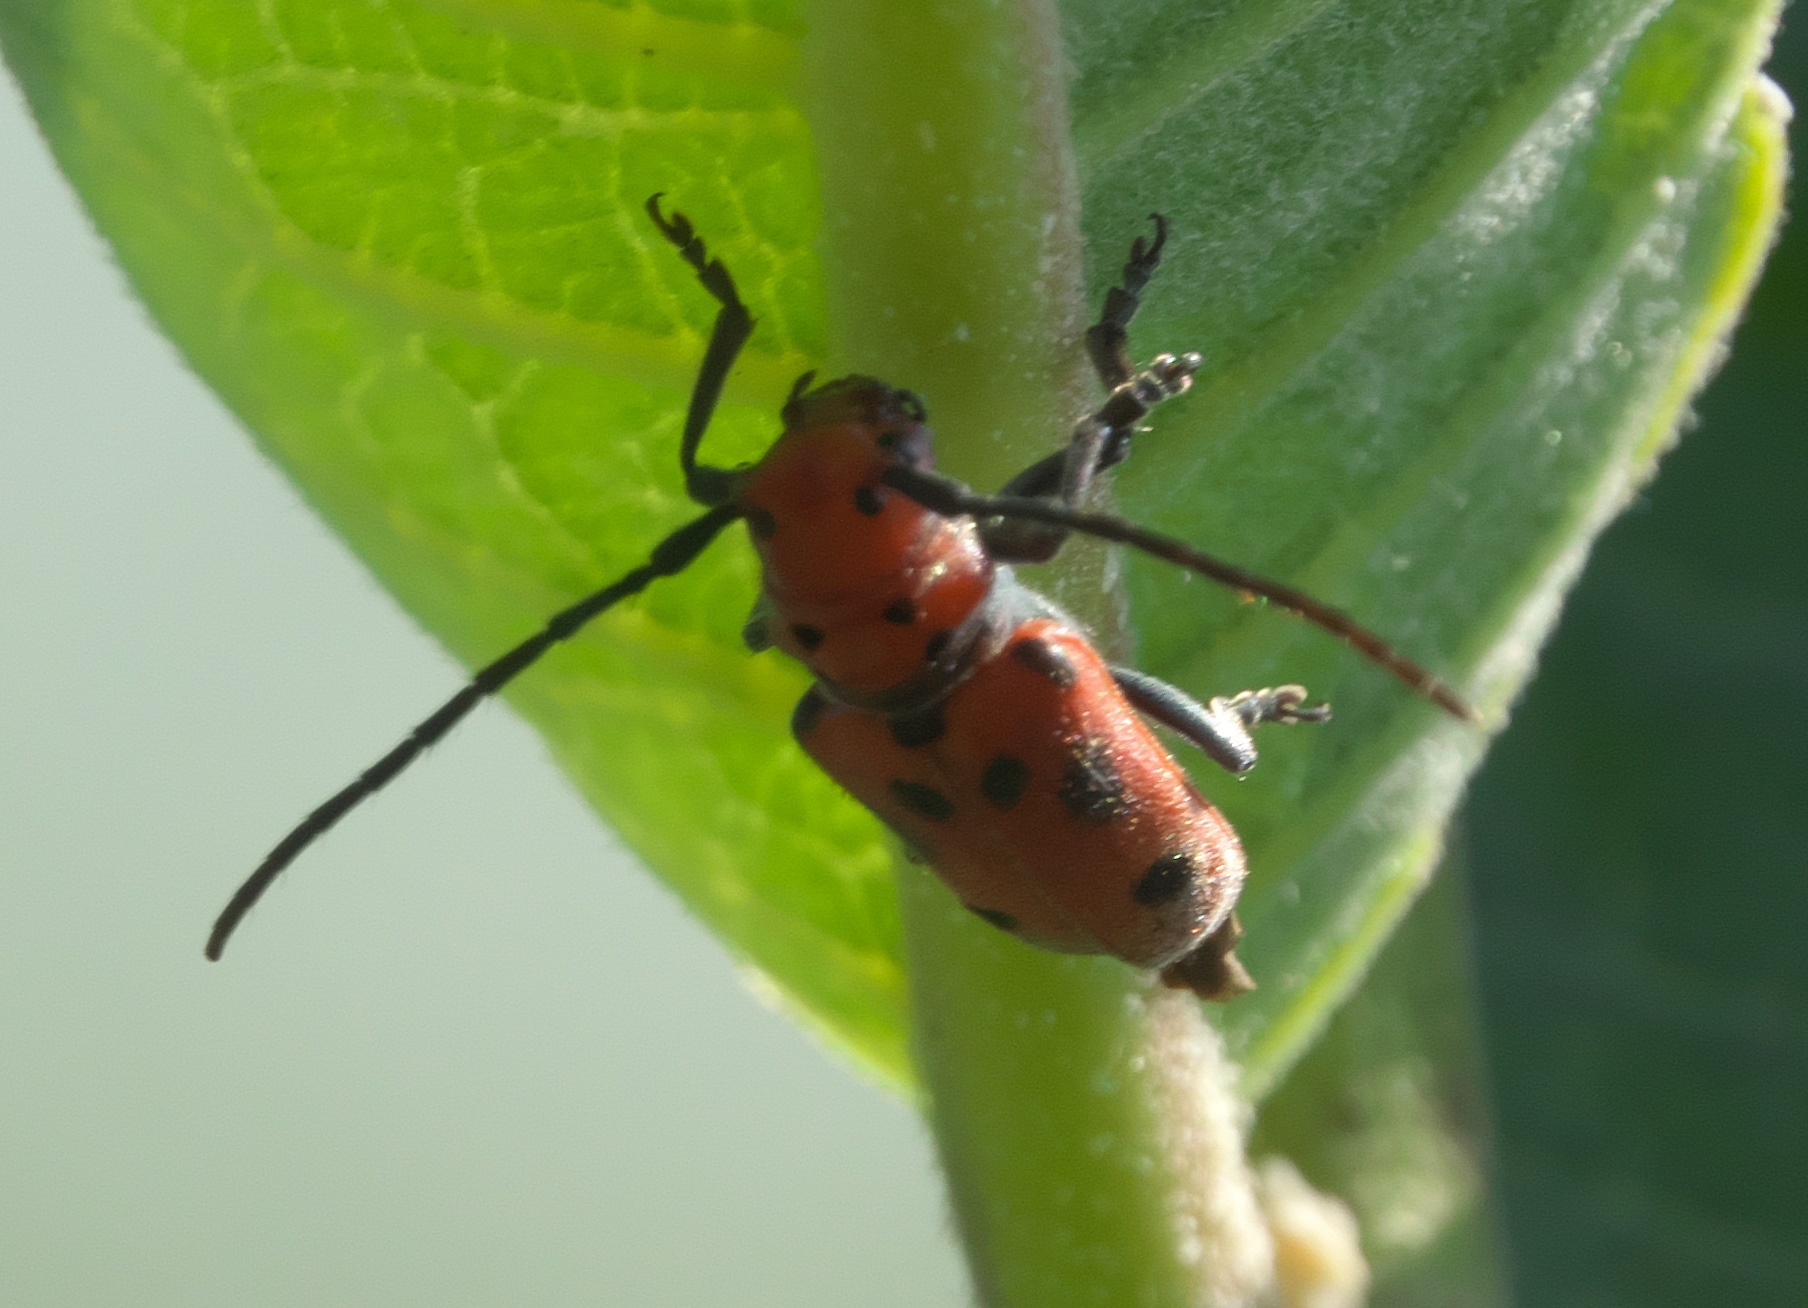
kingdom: Animalia
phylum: Arthropoda
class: Insecta
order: Coleoptera
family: Cerambycidae
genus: Tetraopes
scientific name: Tetraopes tetrophthalmus
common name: Red milkweed beetle
